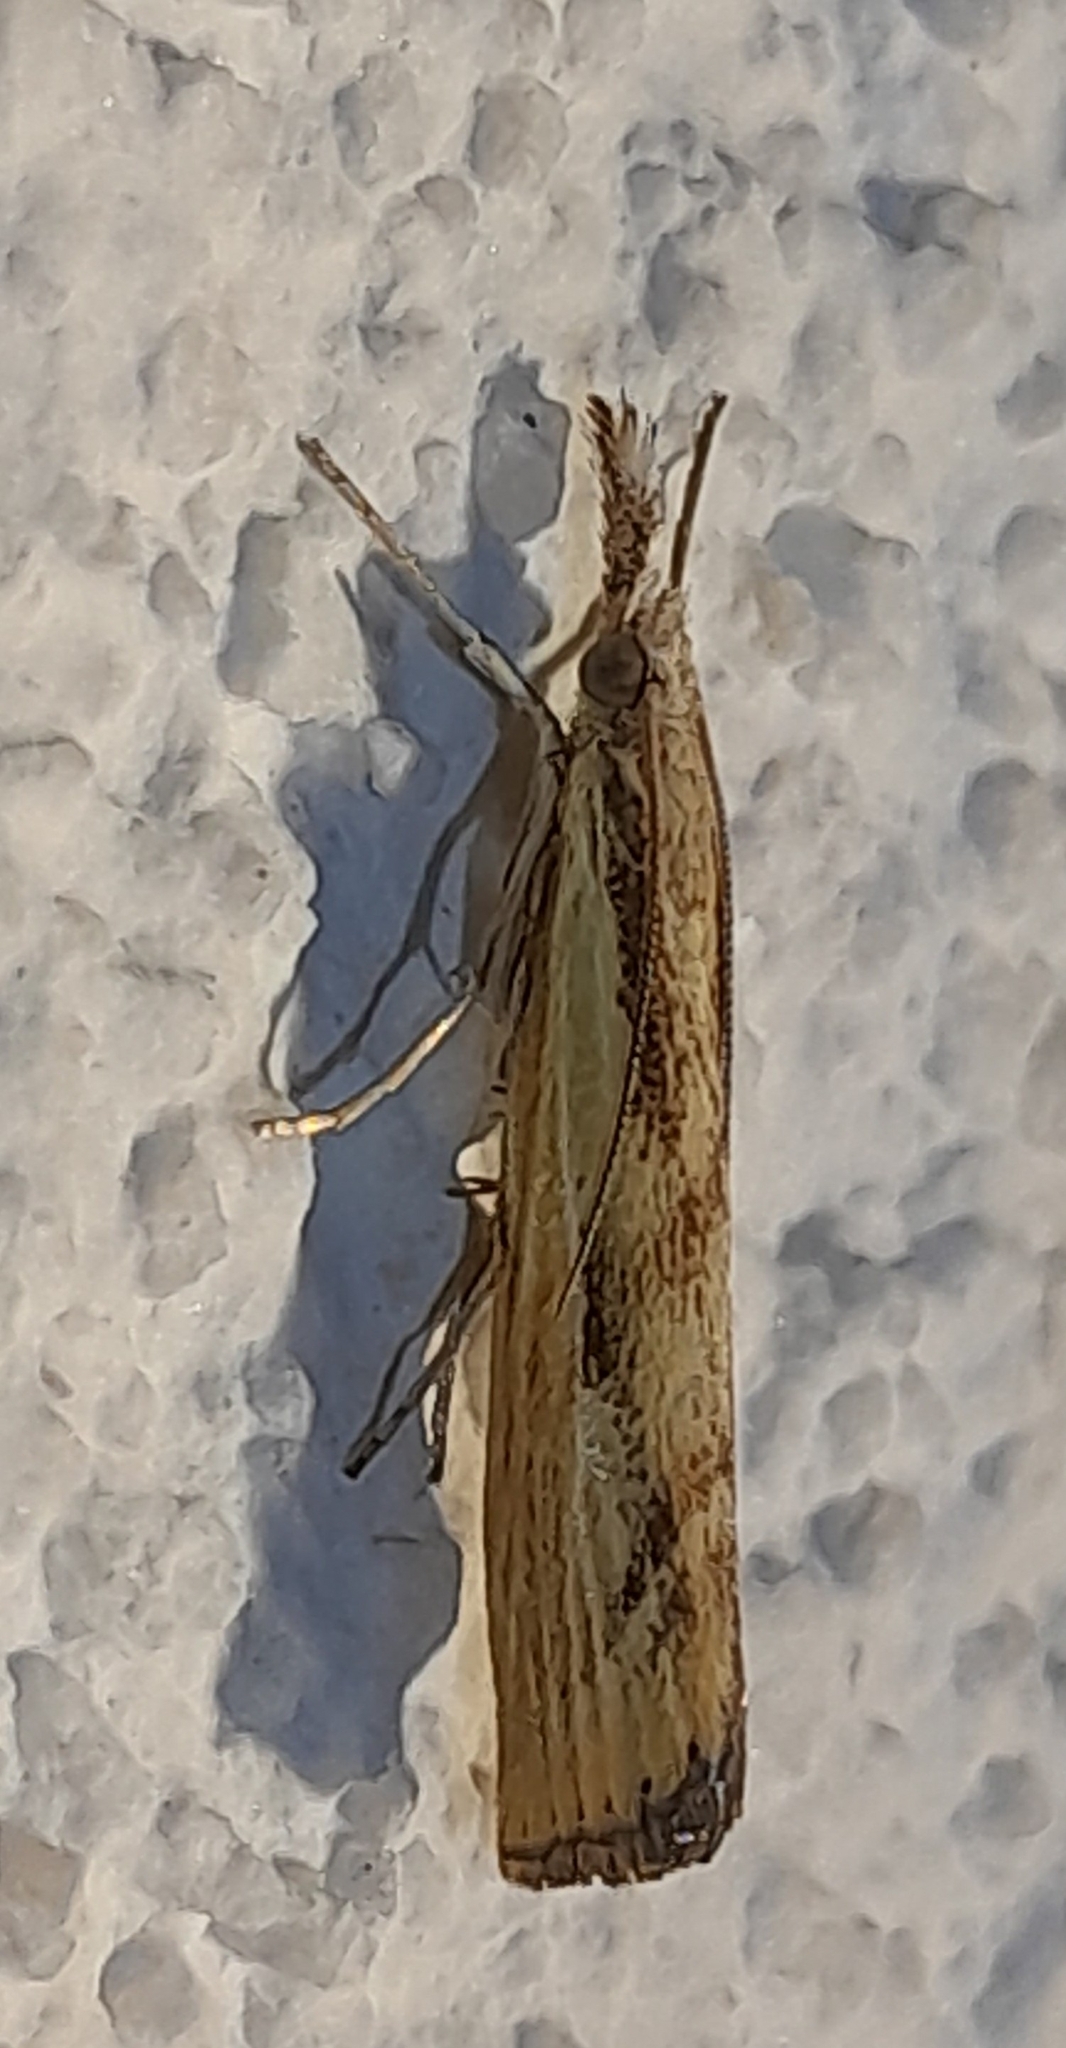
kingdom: Animalia
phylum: Arthropoda
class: Insecta
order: Lepidoptera
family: Crambidae
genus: Agriphila
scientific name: Agriphila inquinatella
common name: Barred grass-veneer
